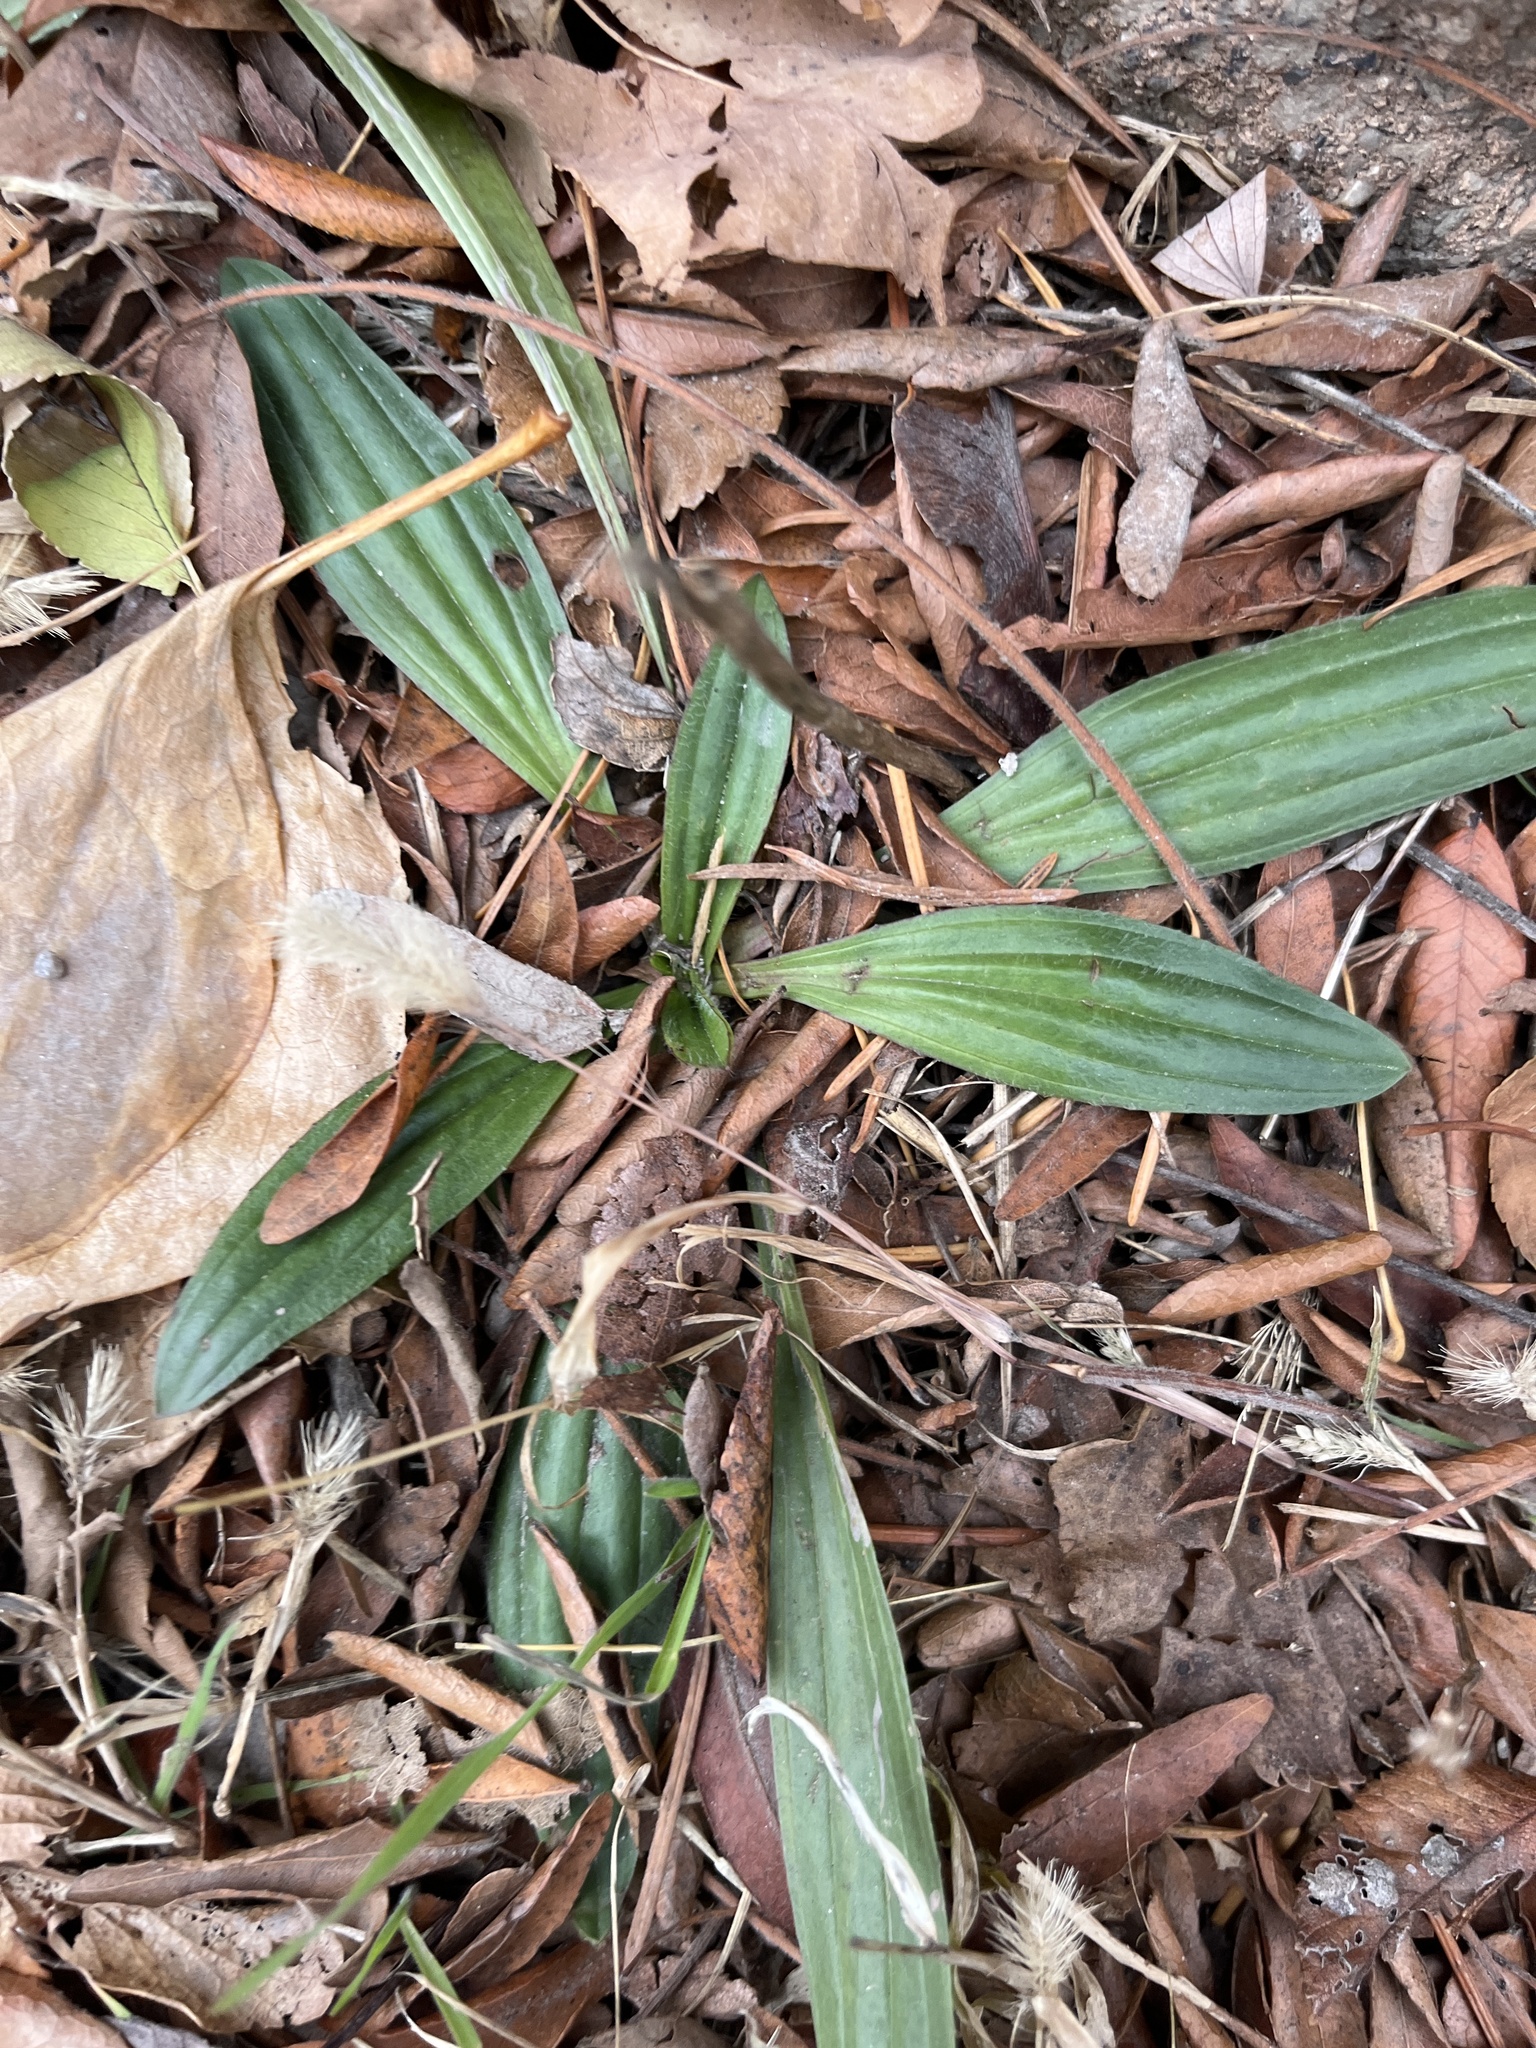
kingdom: Plantae
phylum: Tracheophyta
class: Magnoliopsida
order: Lamiales
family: Plantaginaceae
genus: Plantago
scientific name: Plantago lanceolata
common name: Ribwort plantain
